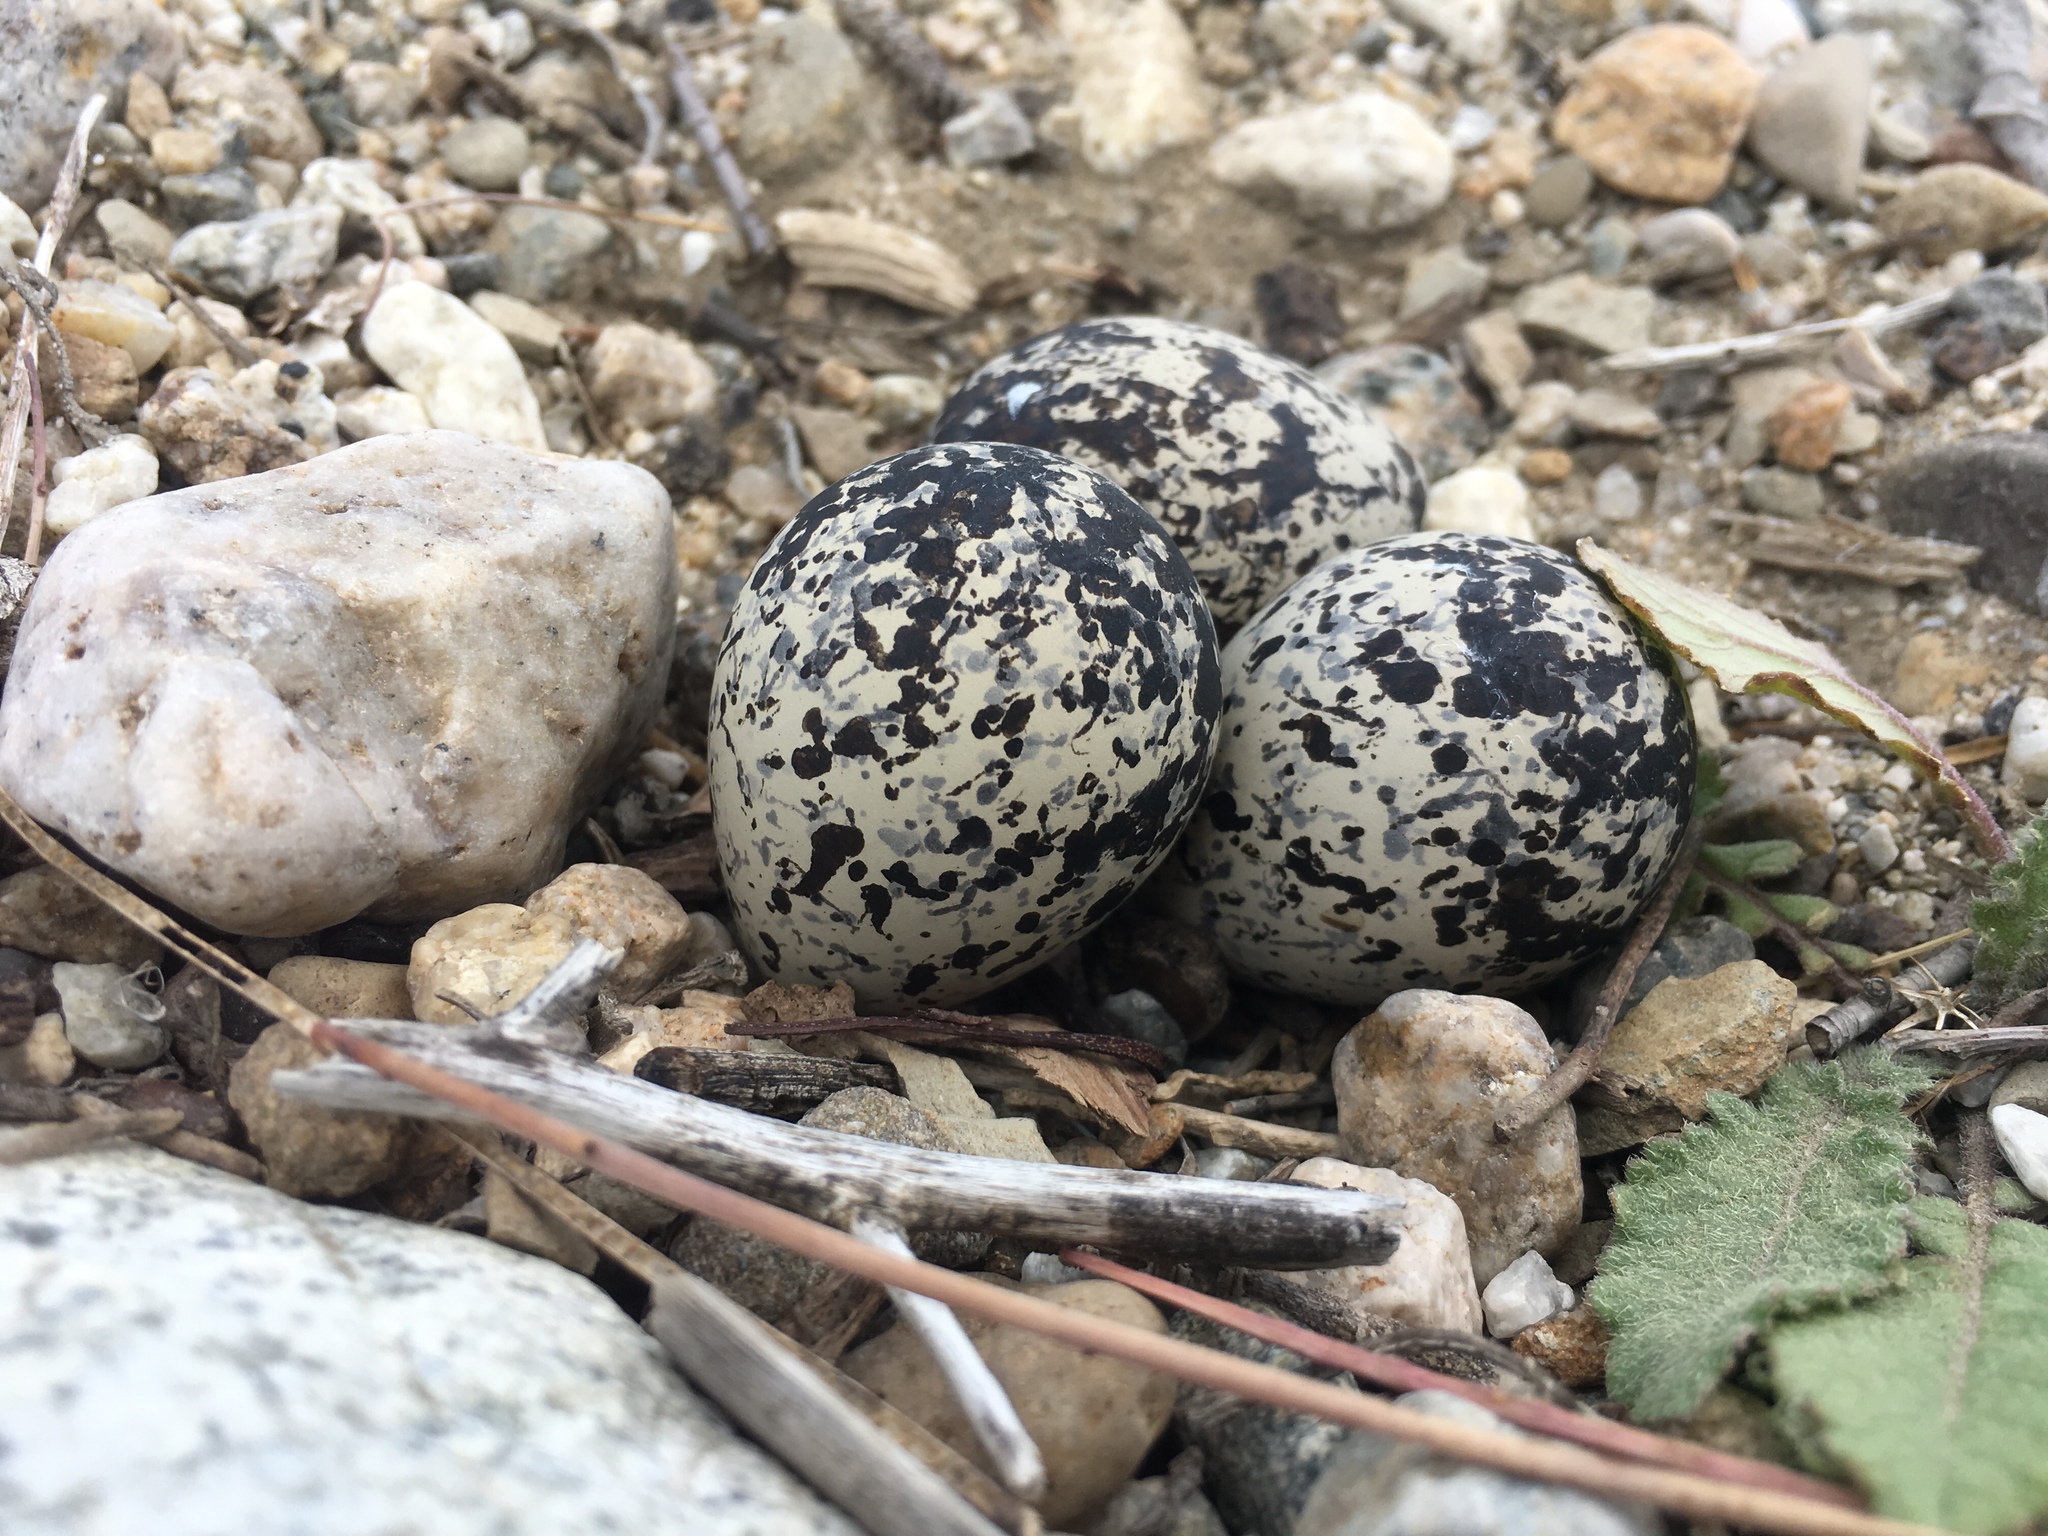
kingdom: Animalia
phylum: Chordata
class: Aves
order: Charadriiformes
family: Charadriidae
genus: Charadrius
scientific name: Charadrius vociferus
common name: Killdeer
